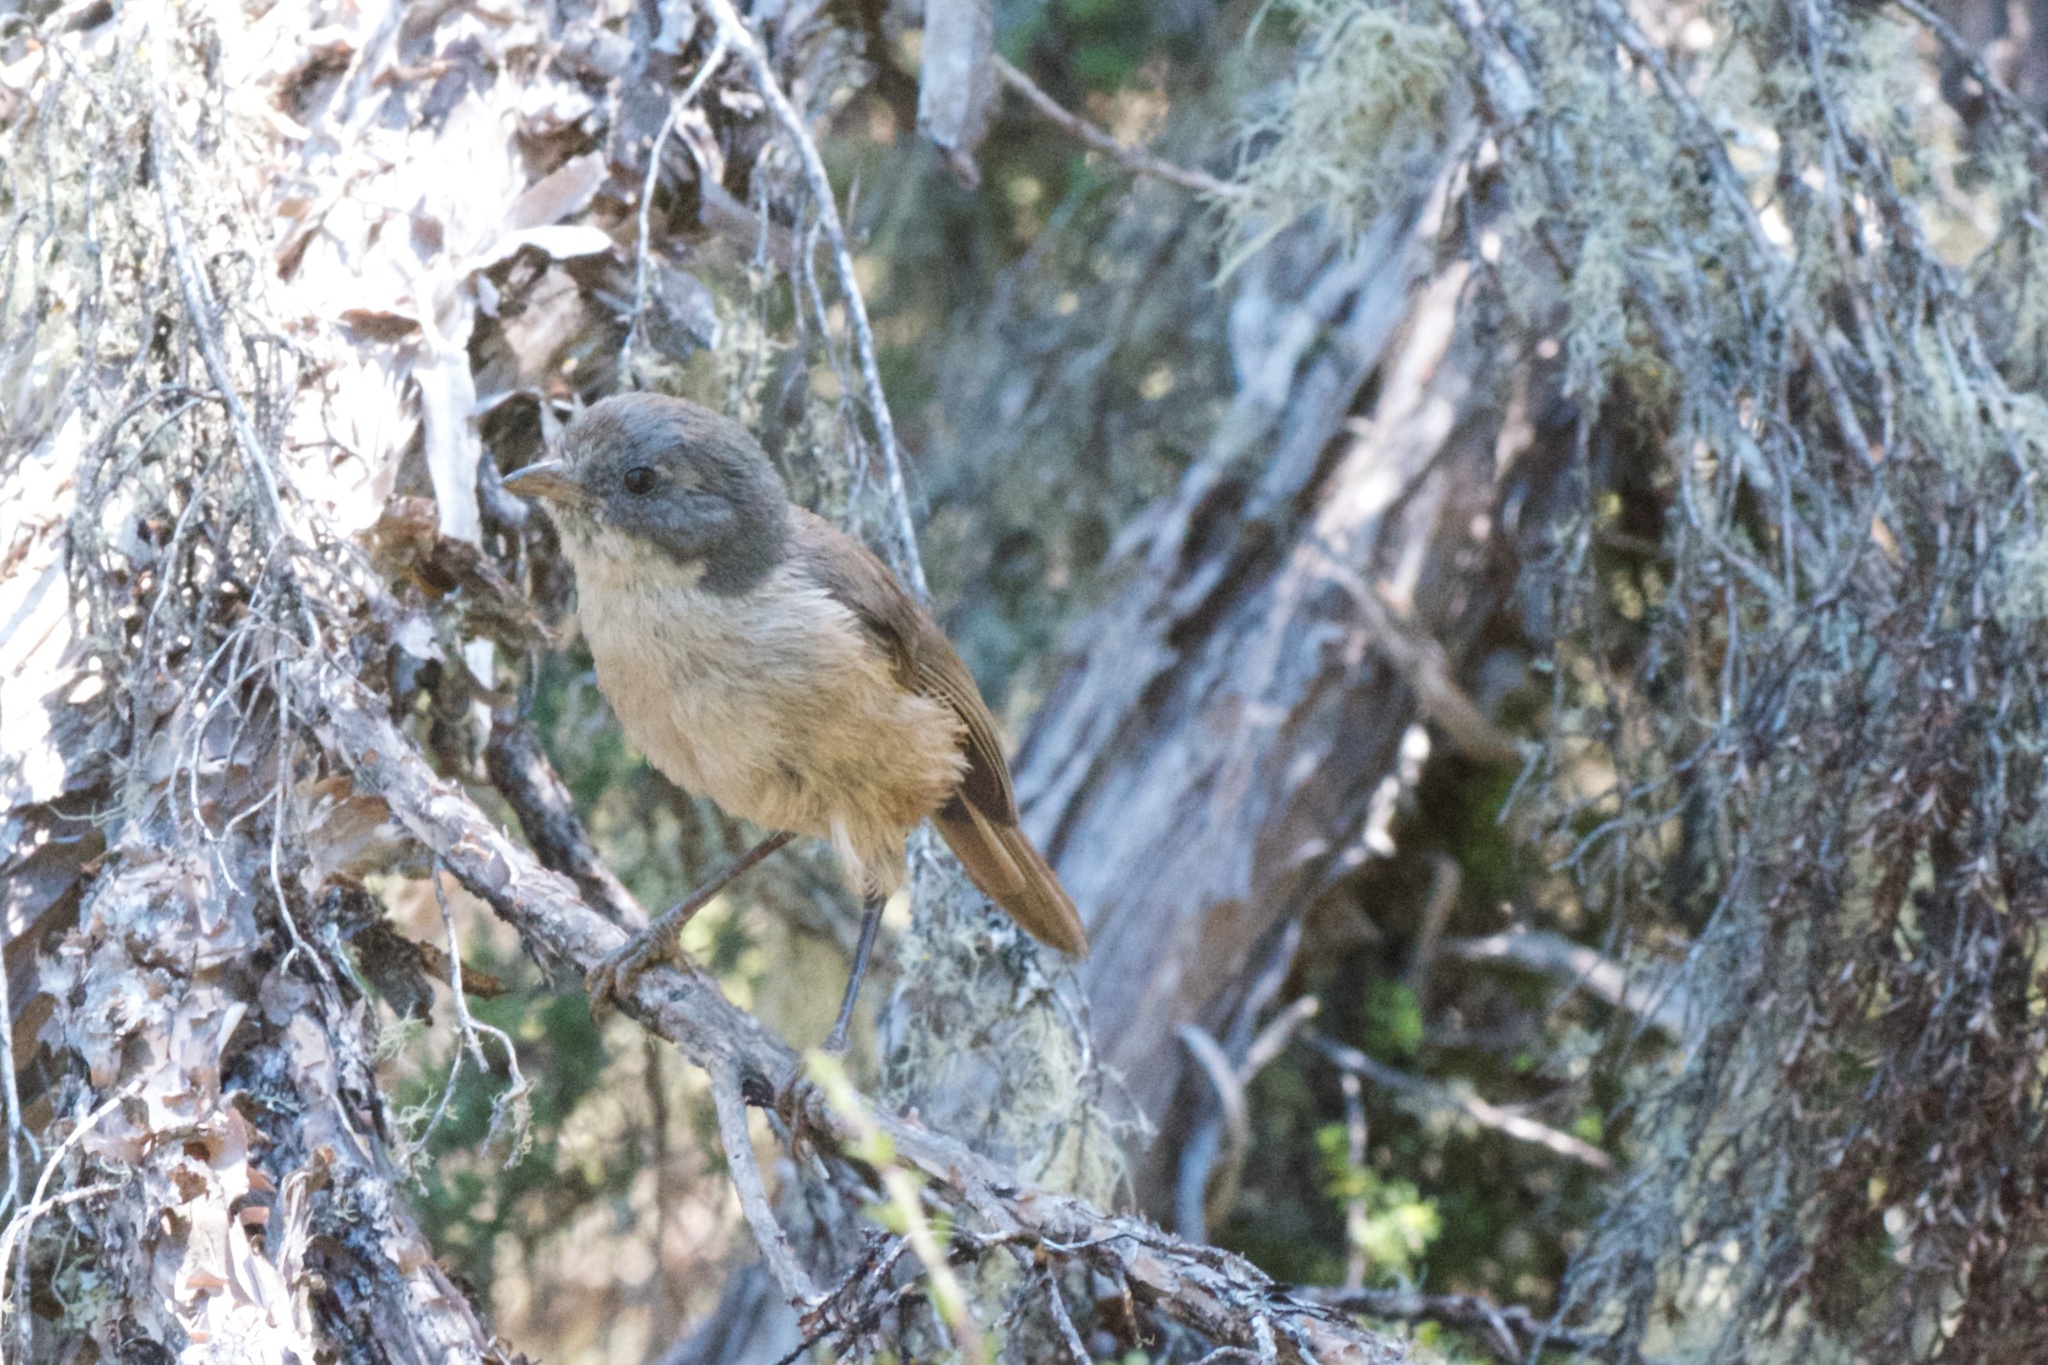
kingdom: Animalia
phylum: Chordata
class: Aves
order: Passeriformes
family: Acanthizidae
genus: Finschia
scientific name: Finschia novaeseelandiae
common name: Pipipi
